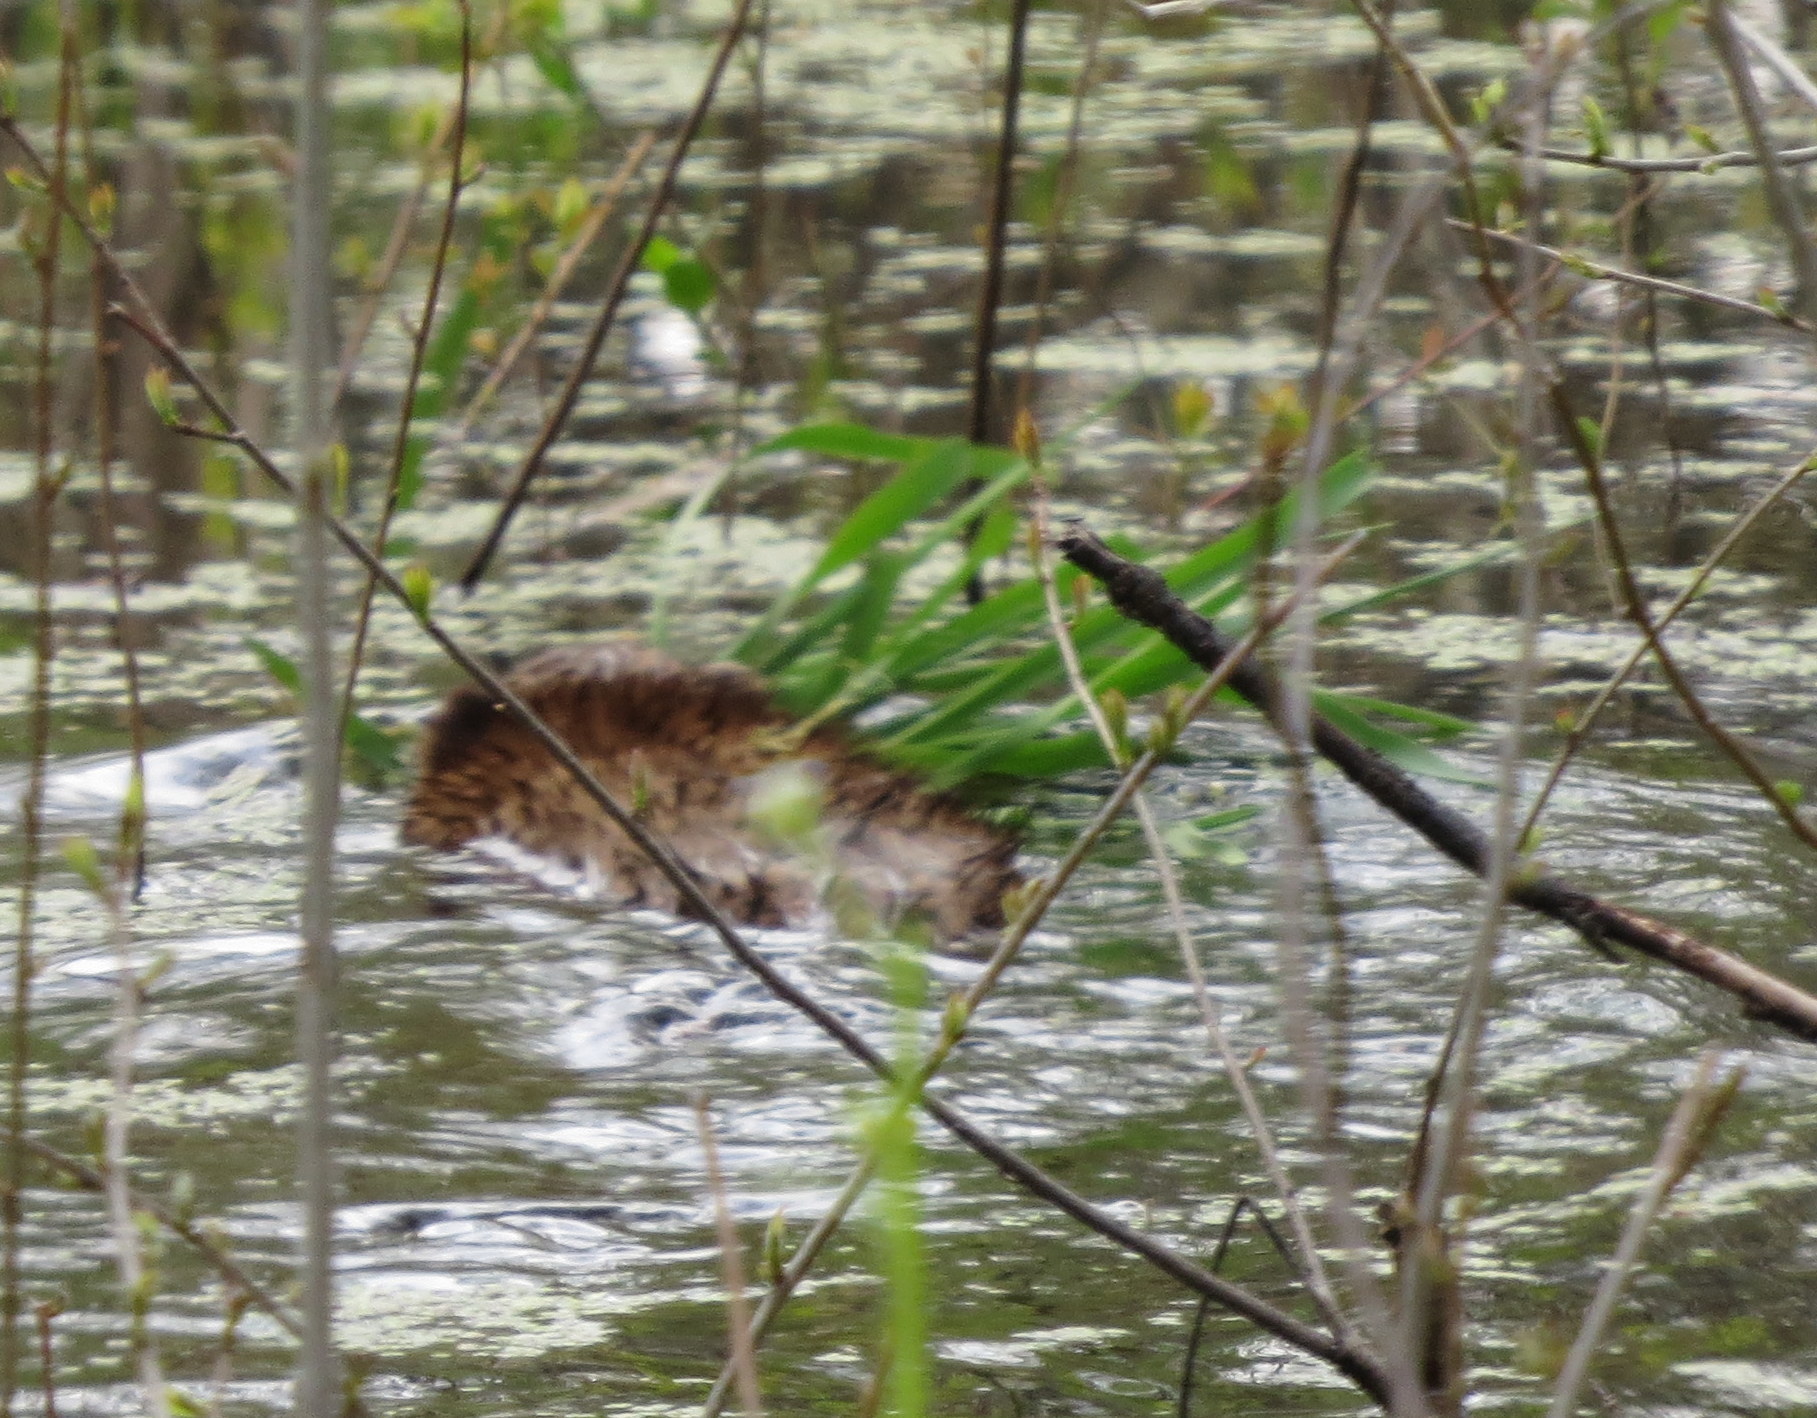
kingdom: Animalia
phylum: Chordata
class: Mammalia
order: Rodentia
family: Cricetidae
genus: Ondatra
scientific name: Ondatra zibethicus
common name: Muskrat
